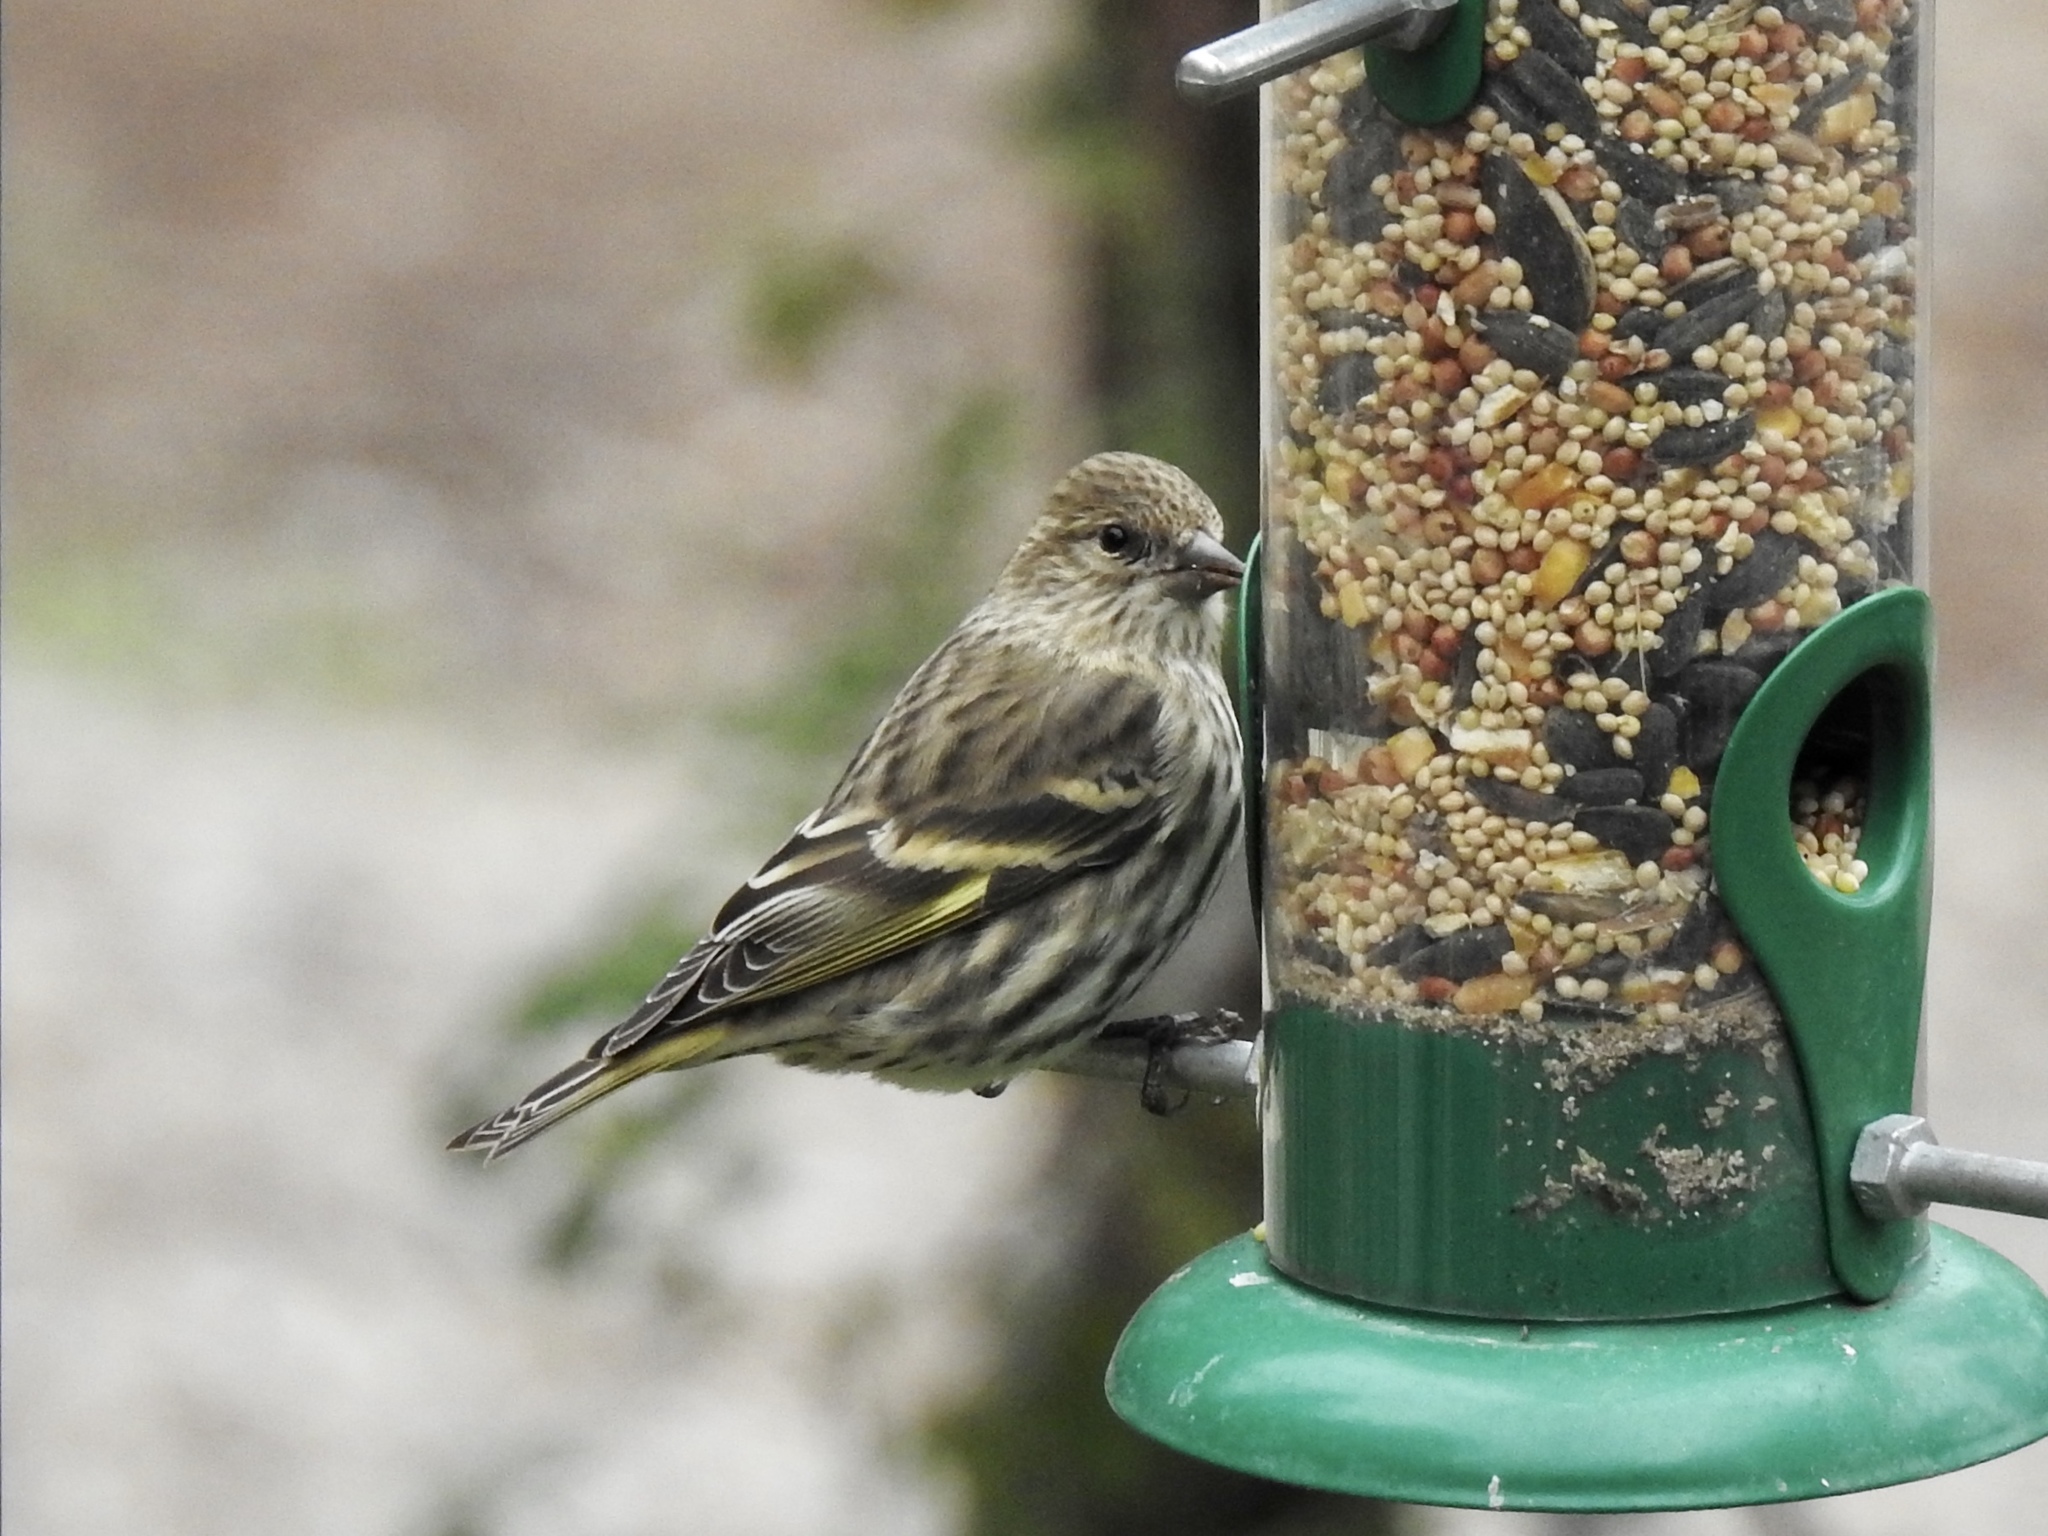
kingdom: Animalia
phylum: Chordata
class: Aves
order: Passeriformes
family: Fringillidae
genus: Spinus
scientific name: Spinus pinus
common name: Pine siskin
